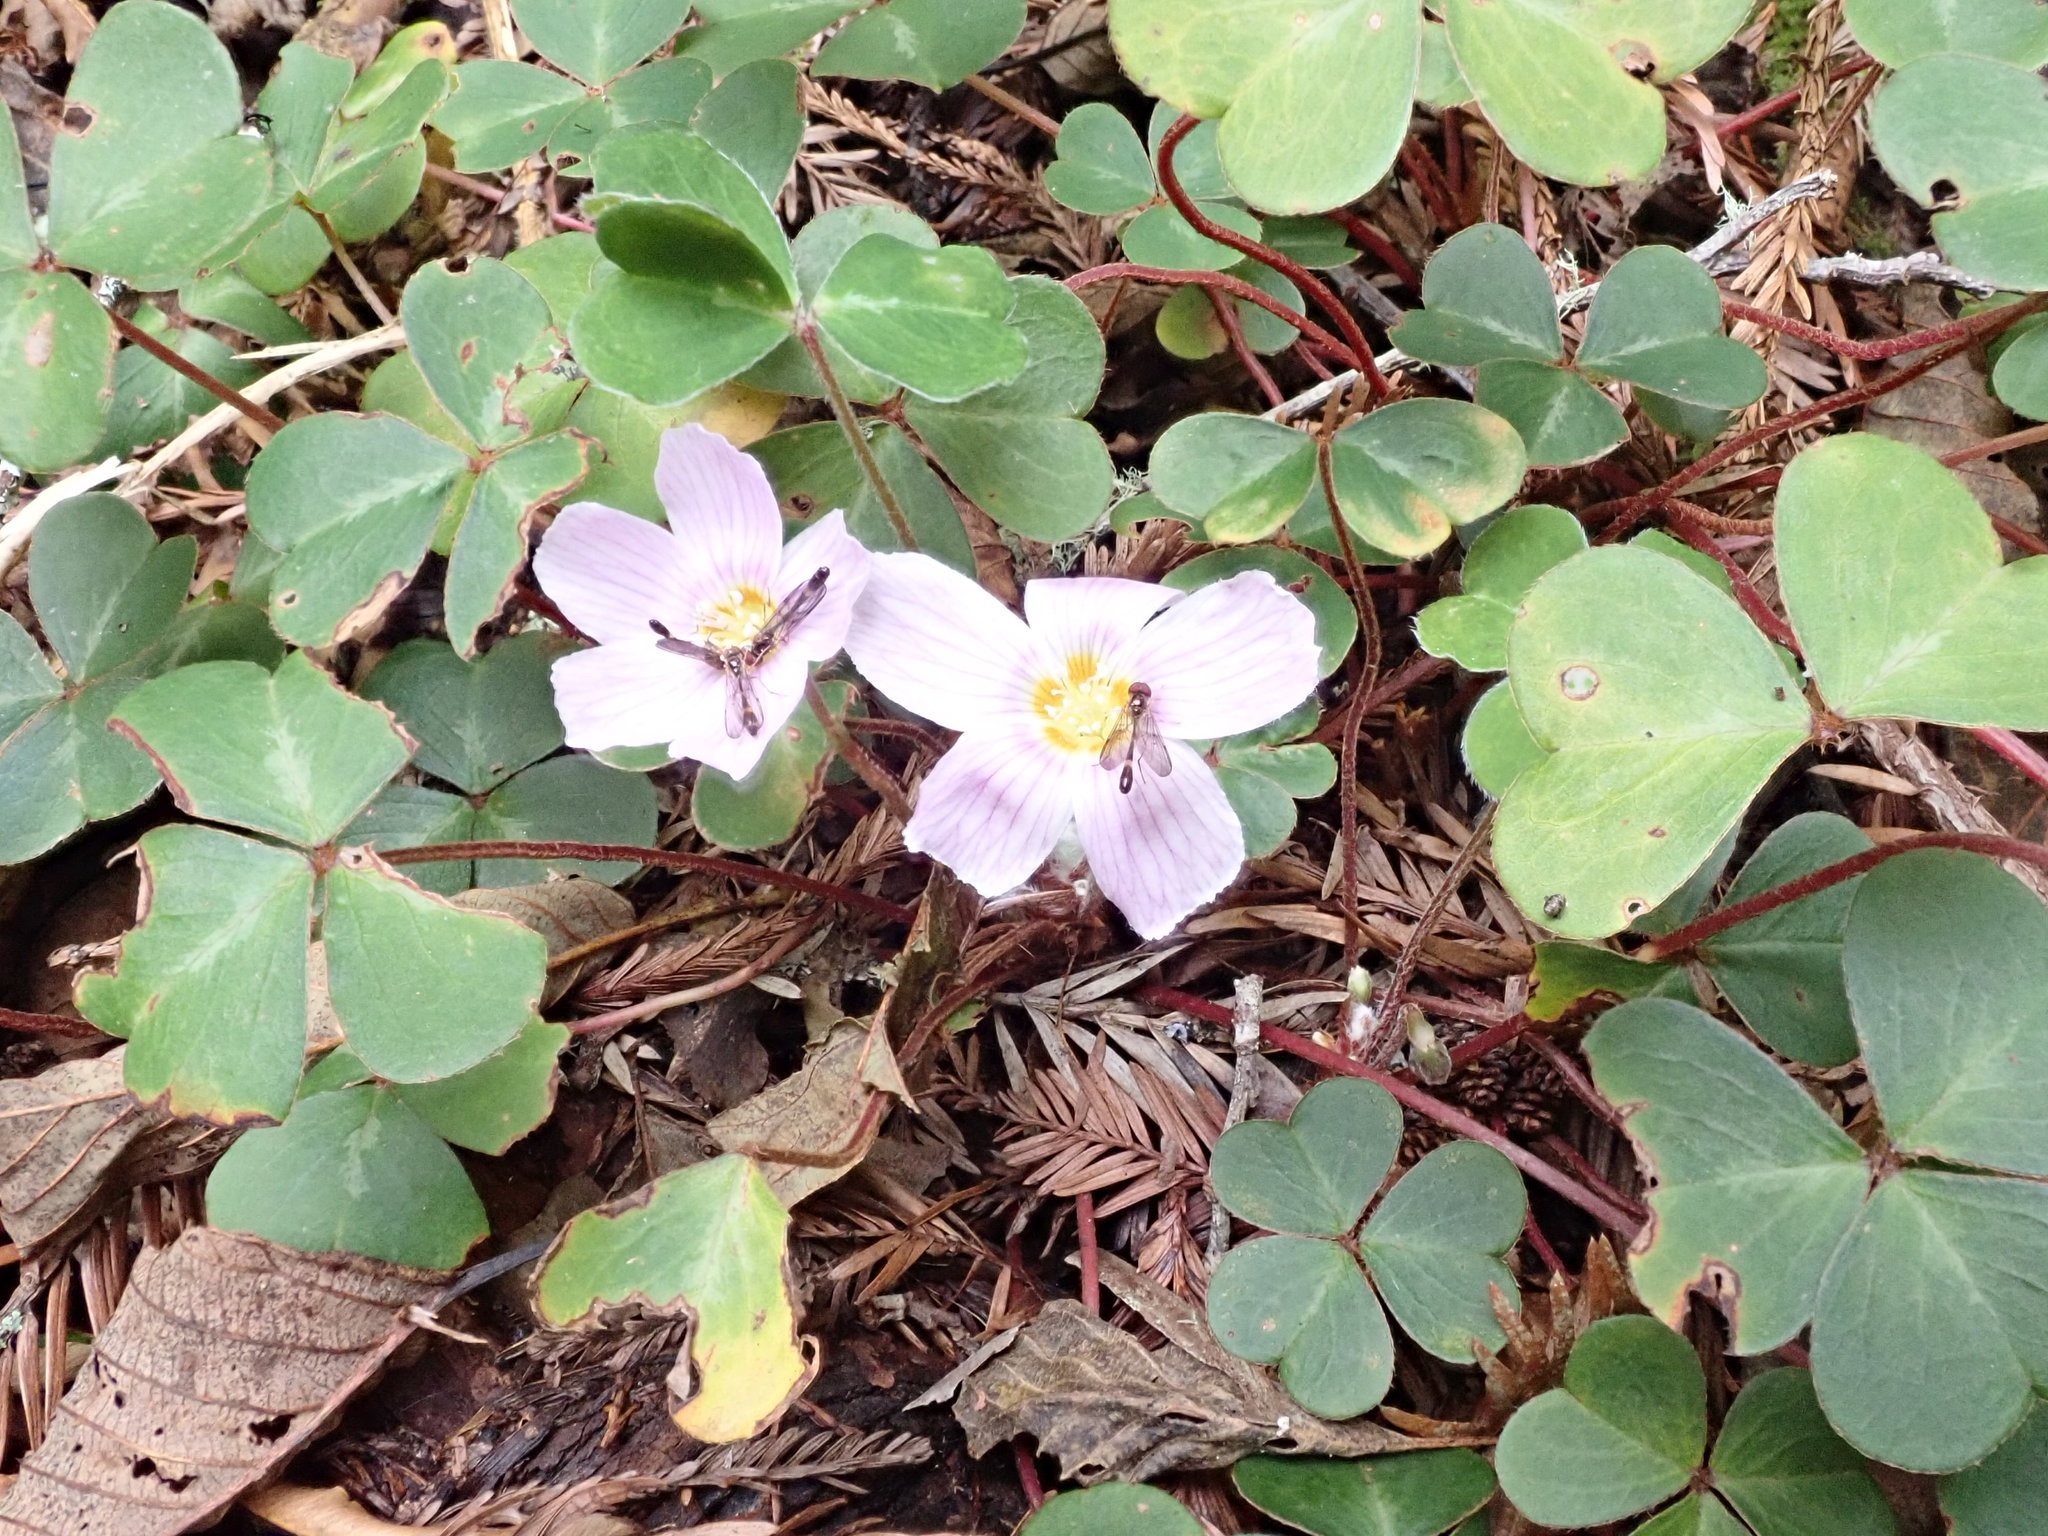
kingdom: Plantae
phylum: Tracheophyta
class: Magnoliopsida
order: Oxalidales
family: Oxalidaceae
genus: Oxalis
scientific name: Oxalis oregana
